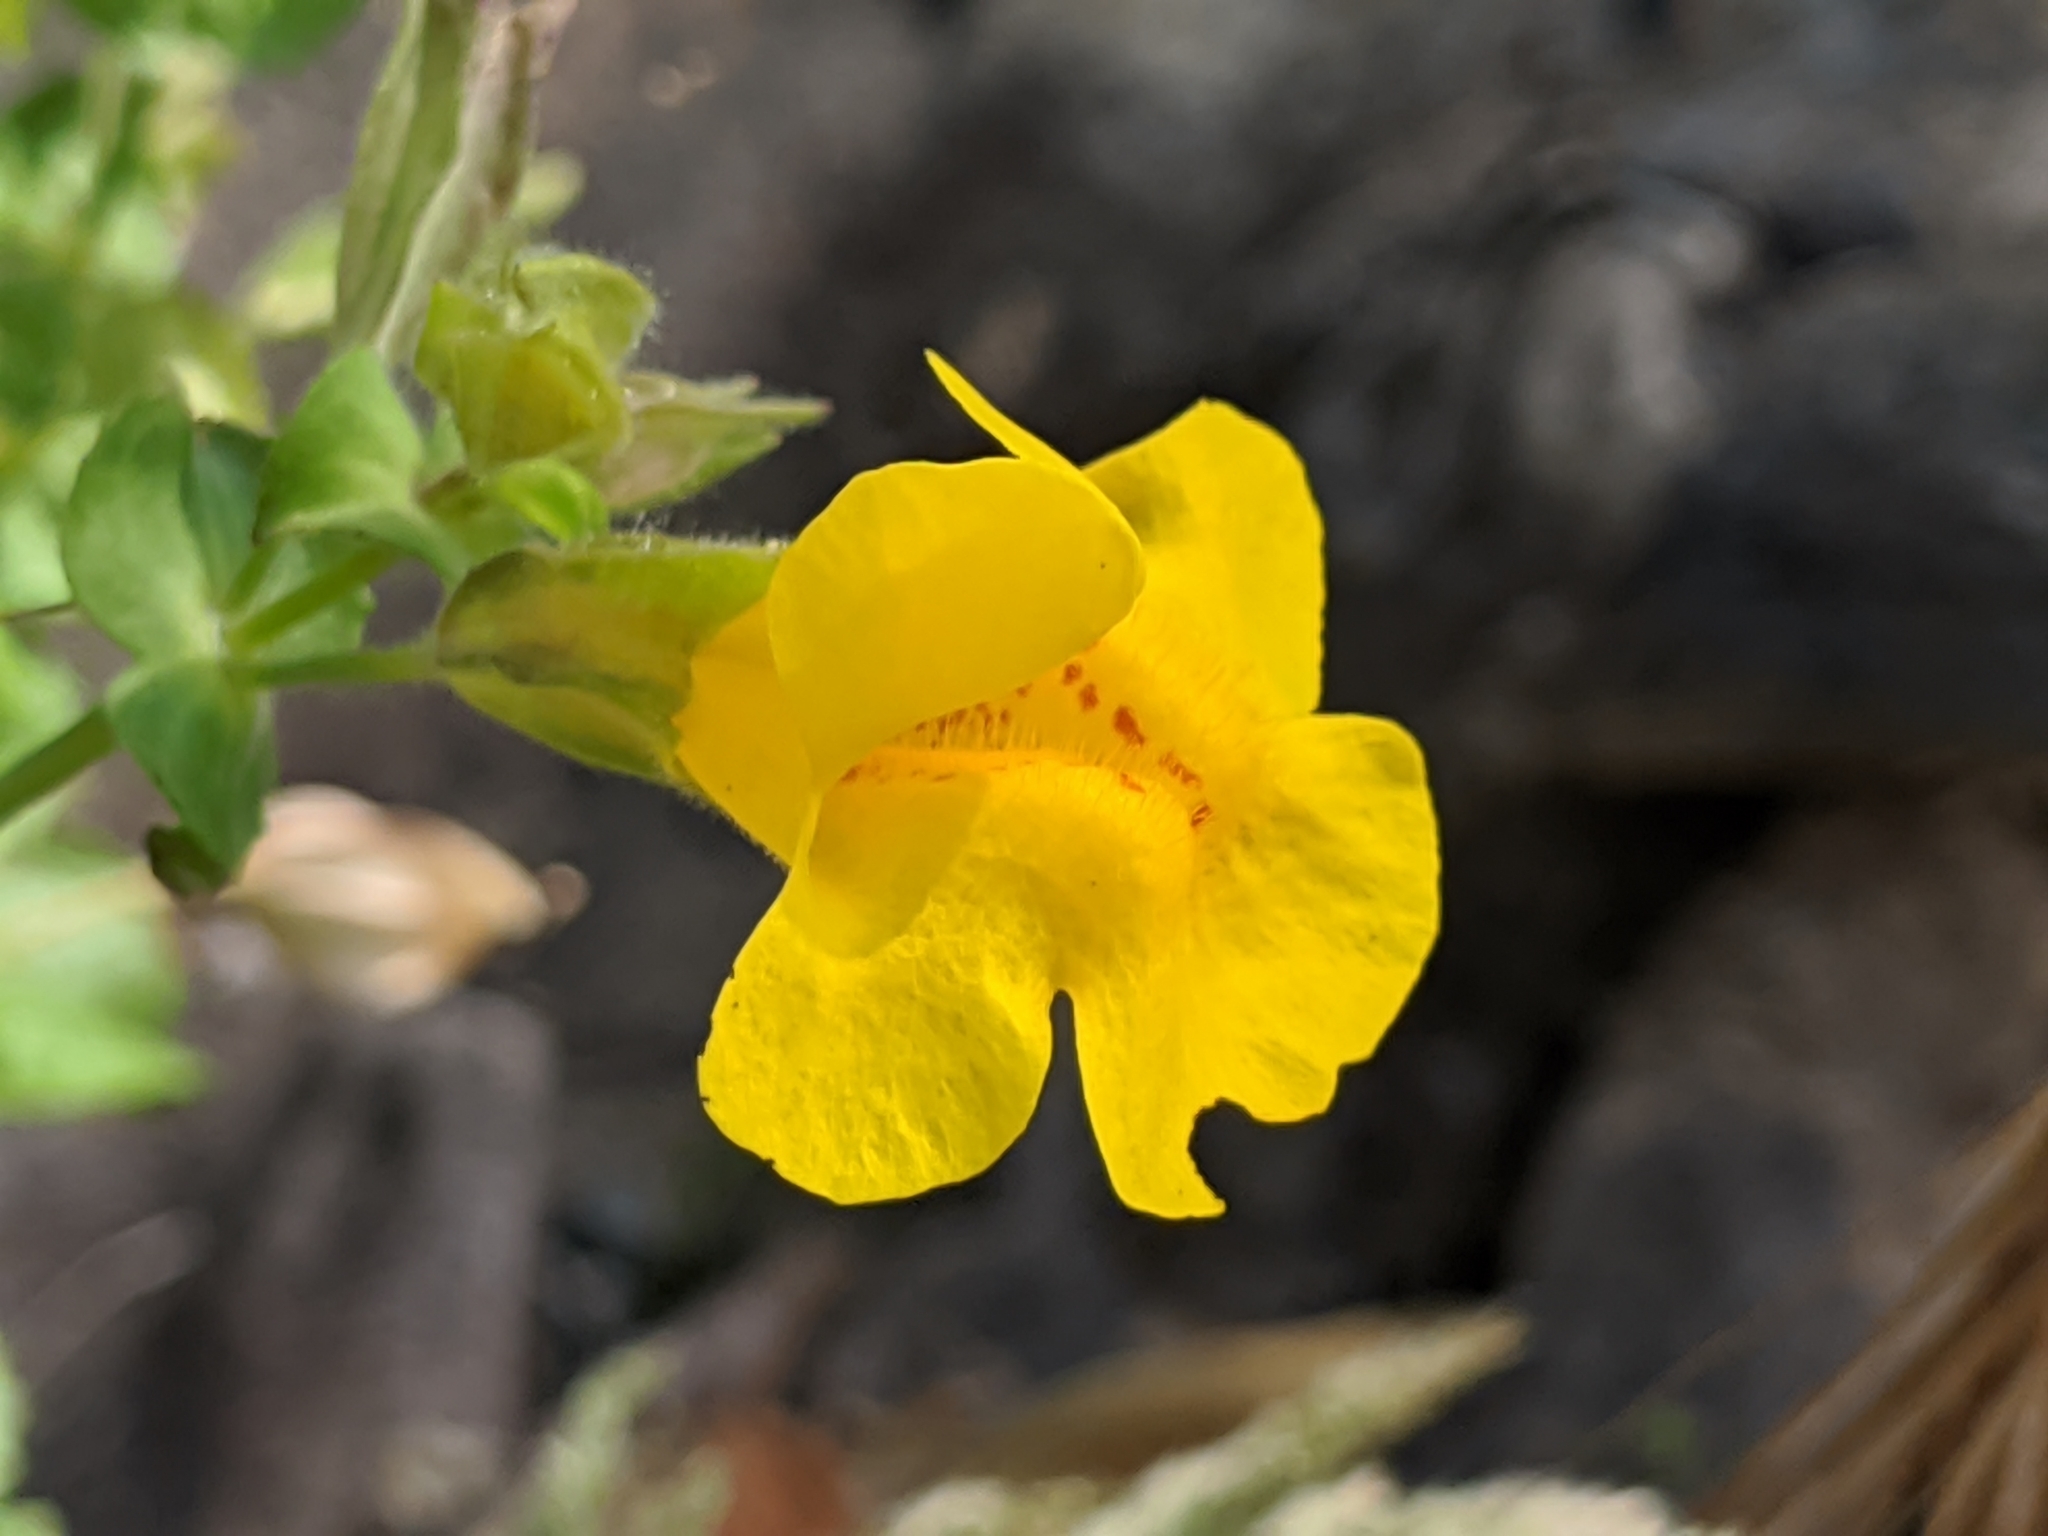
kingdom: Plantae
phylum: Tracheophyta
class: Magnoliopsida
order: Lamiales
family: Phrymaceae
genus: Erythranthe
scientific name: Erythranthe guttata
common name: Monkeyflower
